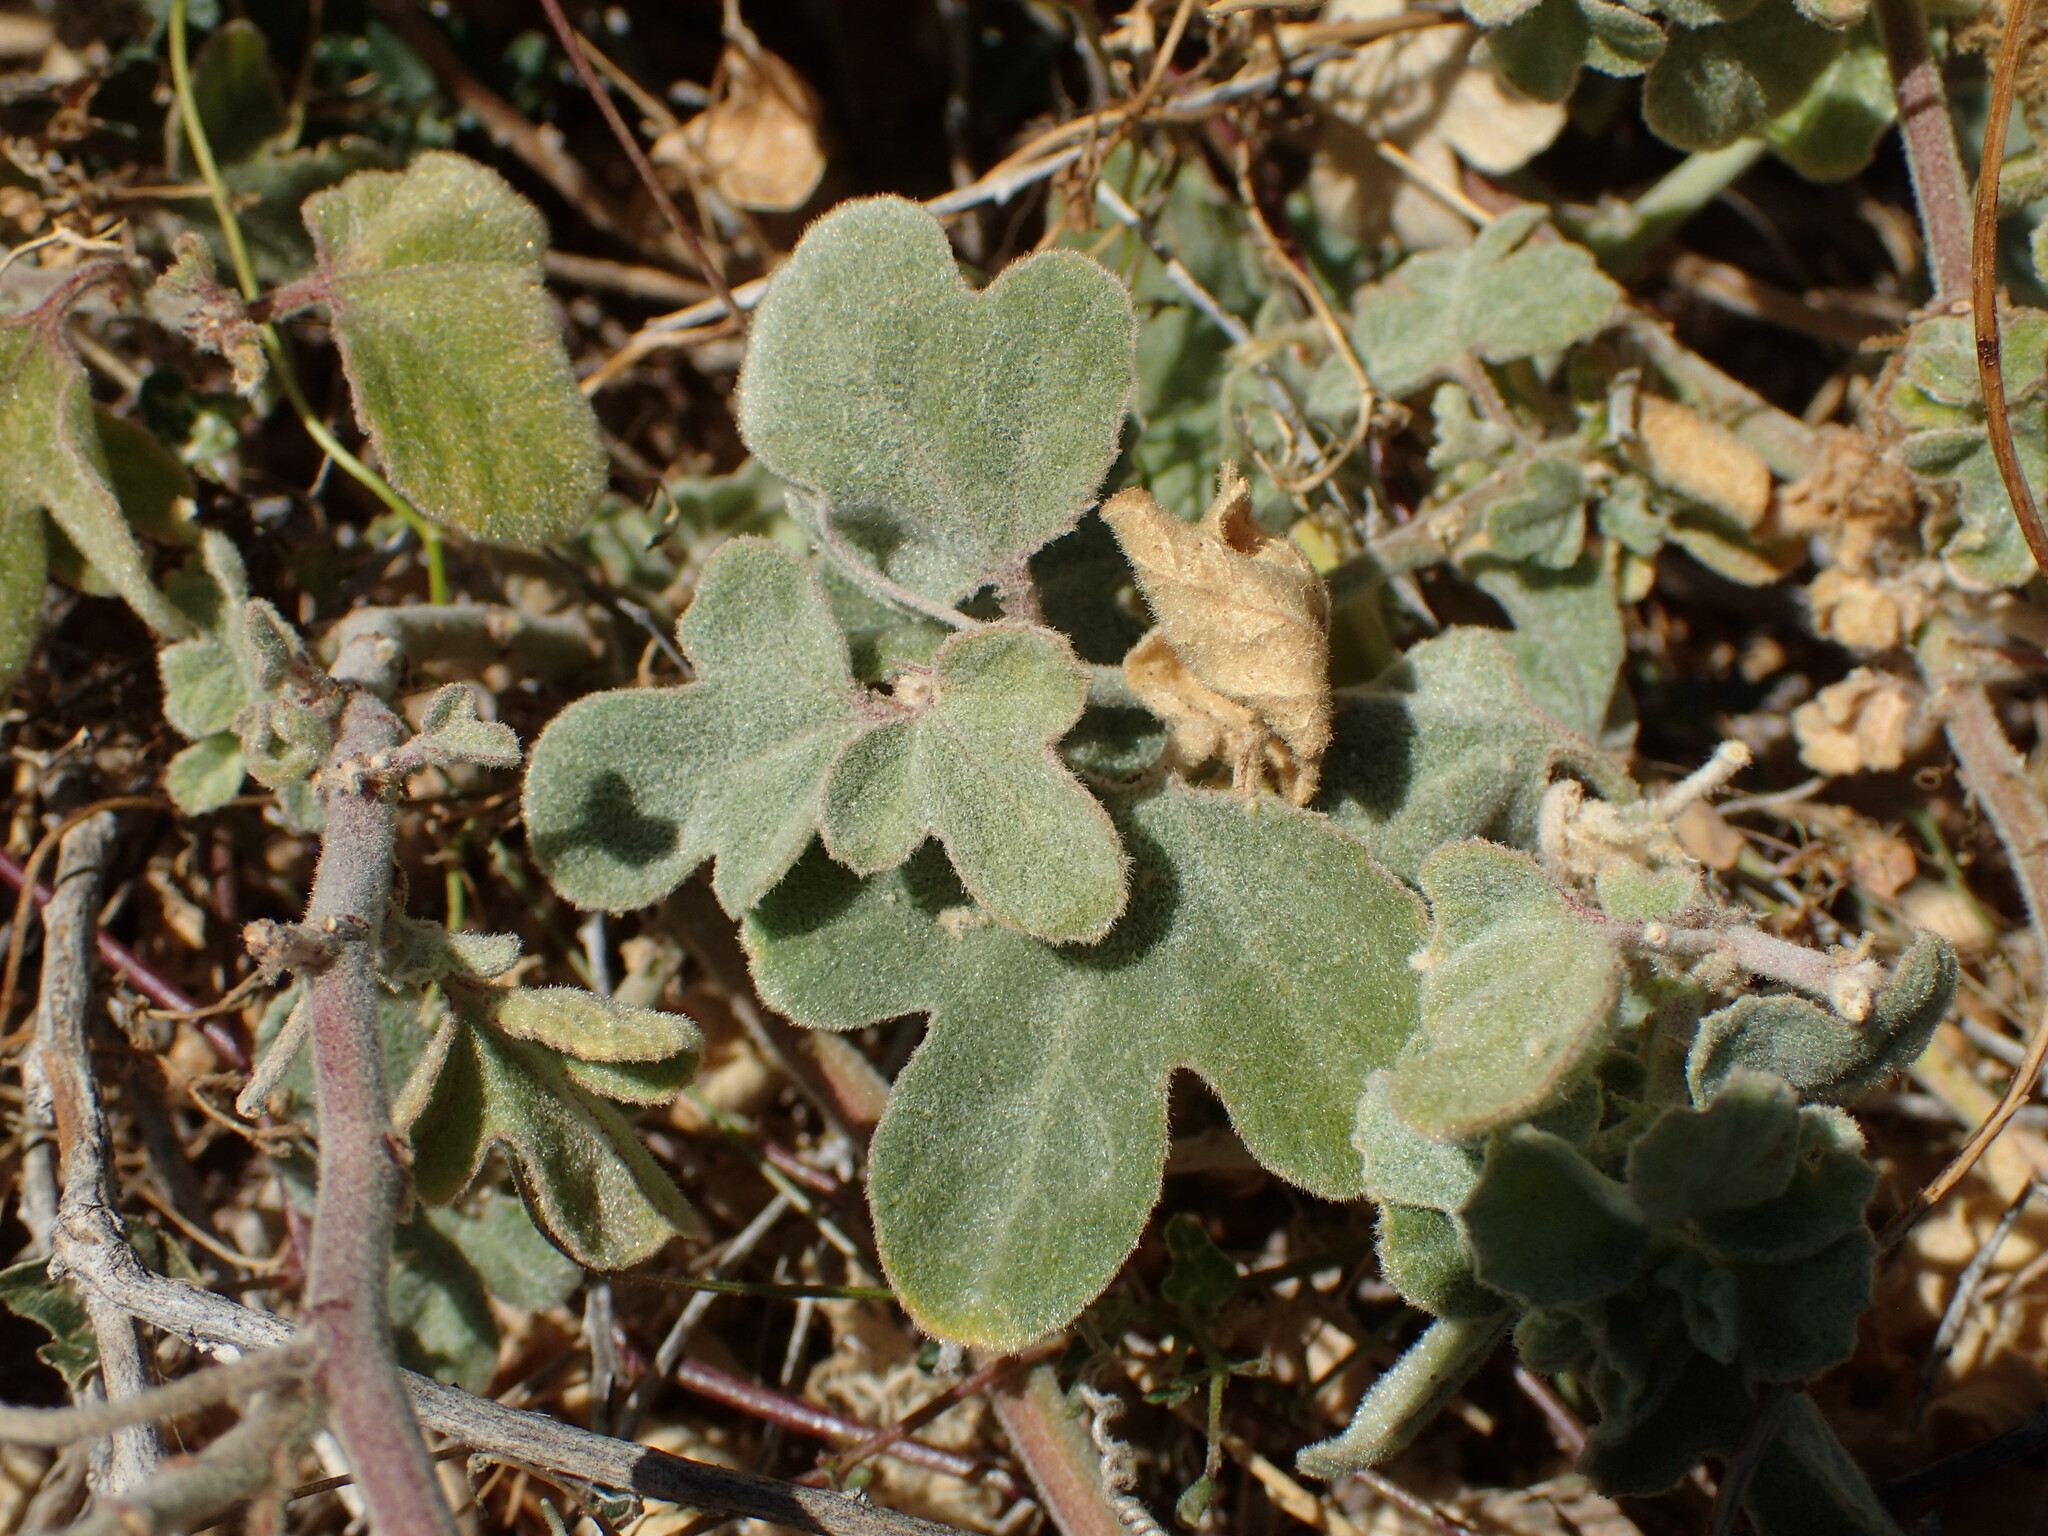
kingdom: Plantae
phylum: Tracheophyta
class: Magnoliopsida
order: Malpighiales
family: Passifloraceae
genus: Passiflora
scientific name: Passiflora arida
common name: Desert passionflower
